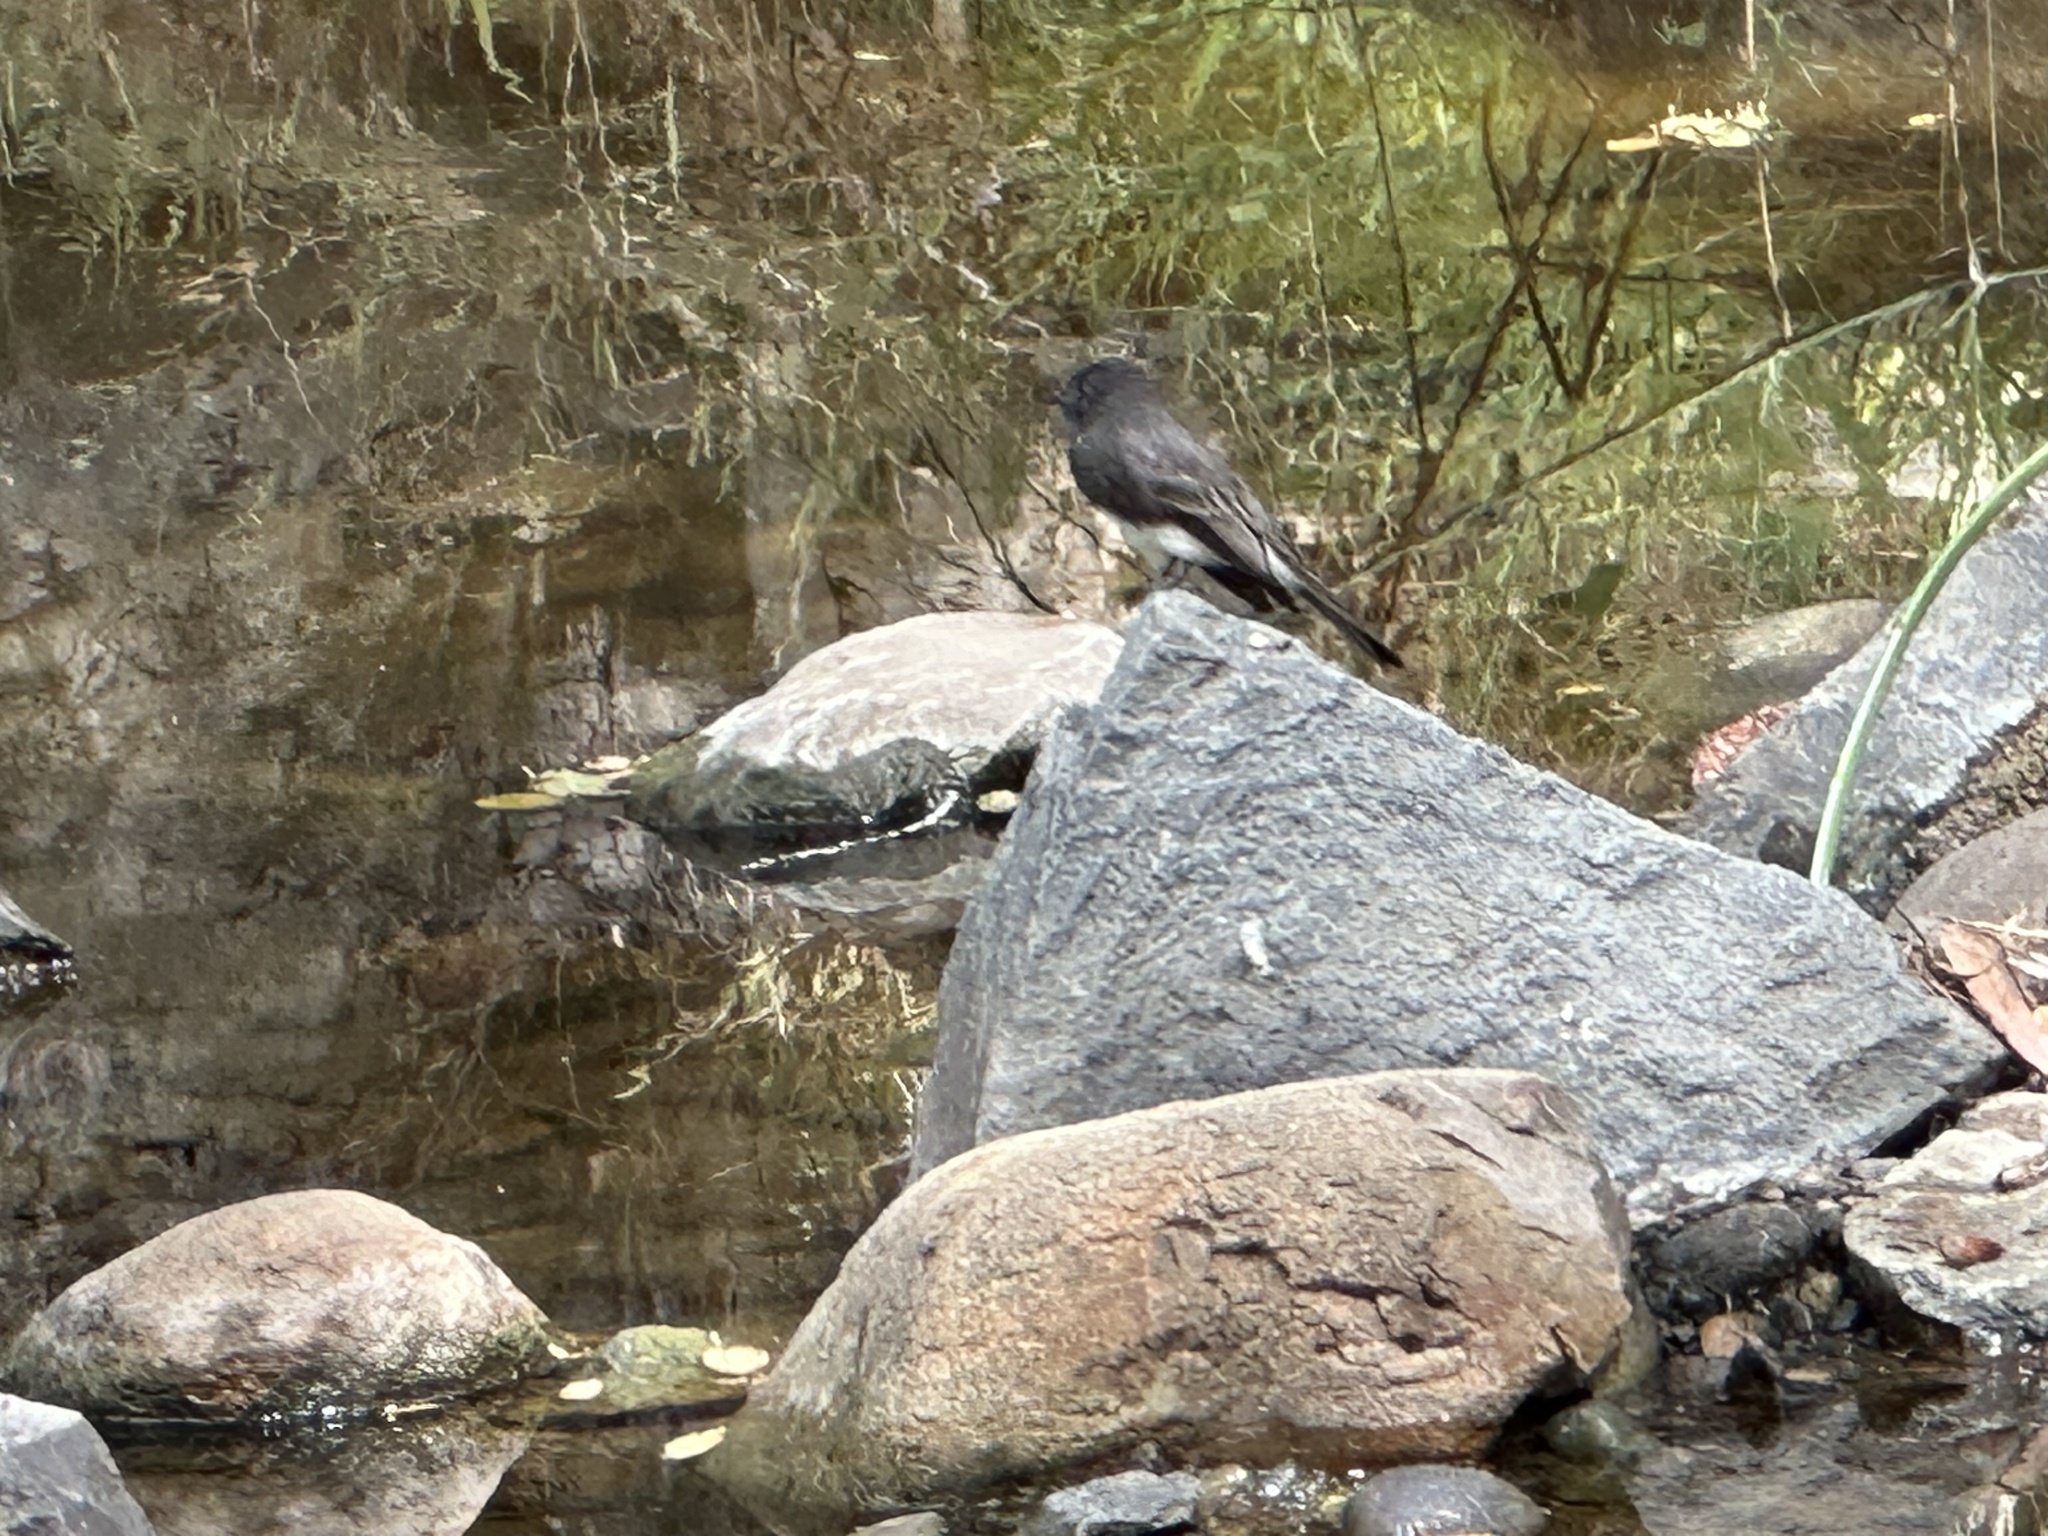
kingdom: Animalia
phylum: Chordata
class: Aves
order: Passeriformes
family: Tyrannidae
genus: Sayornis
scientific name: Sayornis nigricans
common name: Black phoebe
